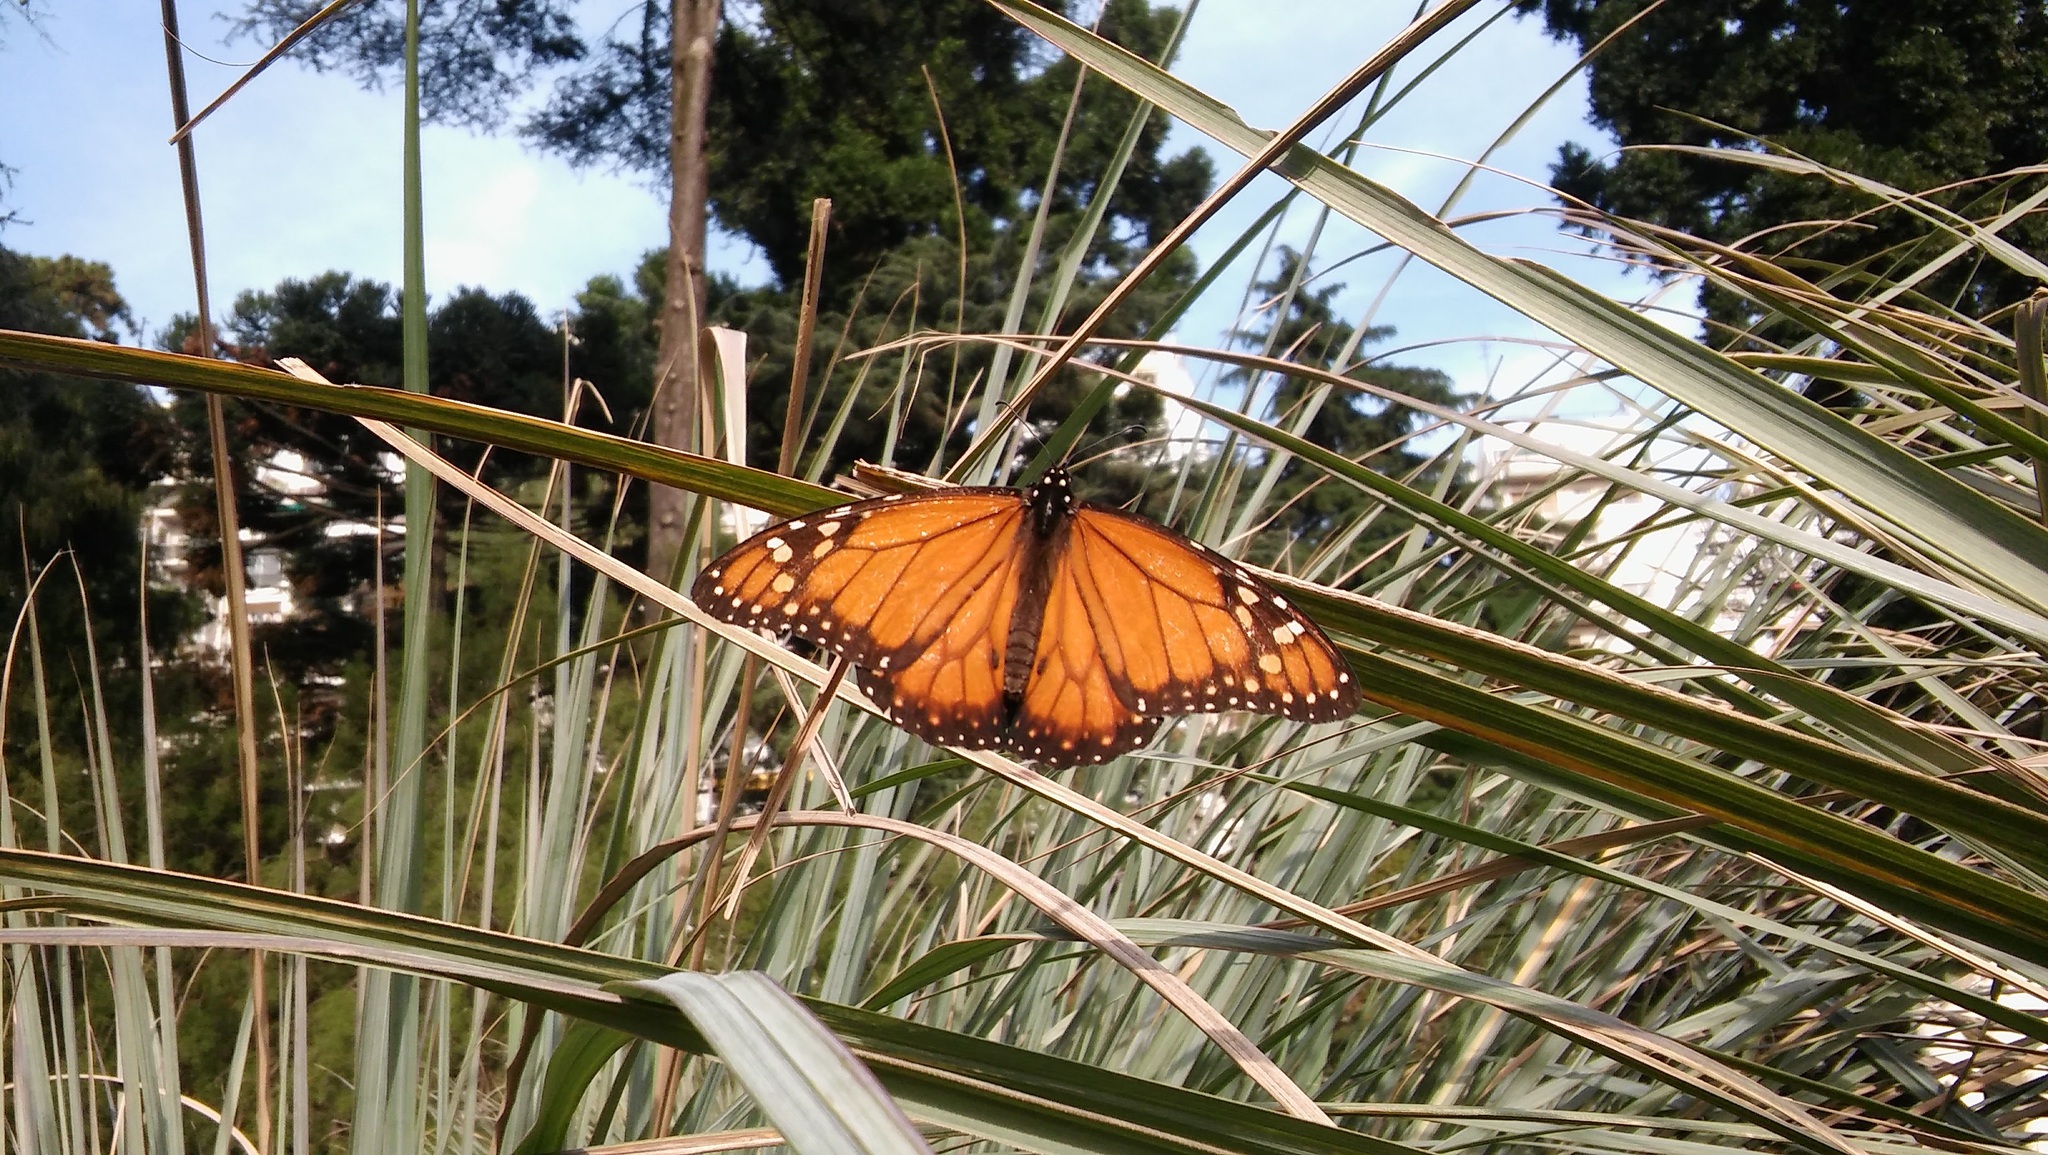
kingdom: Animalia
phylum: Arthropoda
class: Insecta
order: Lepidoptera
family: Nymphalidae
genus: Danaus
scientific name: Danaus erippus
